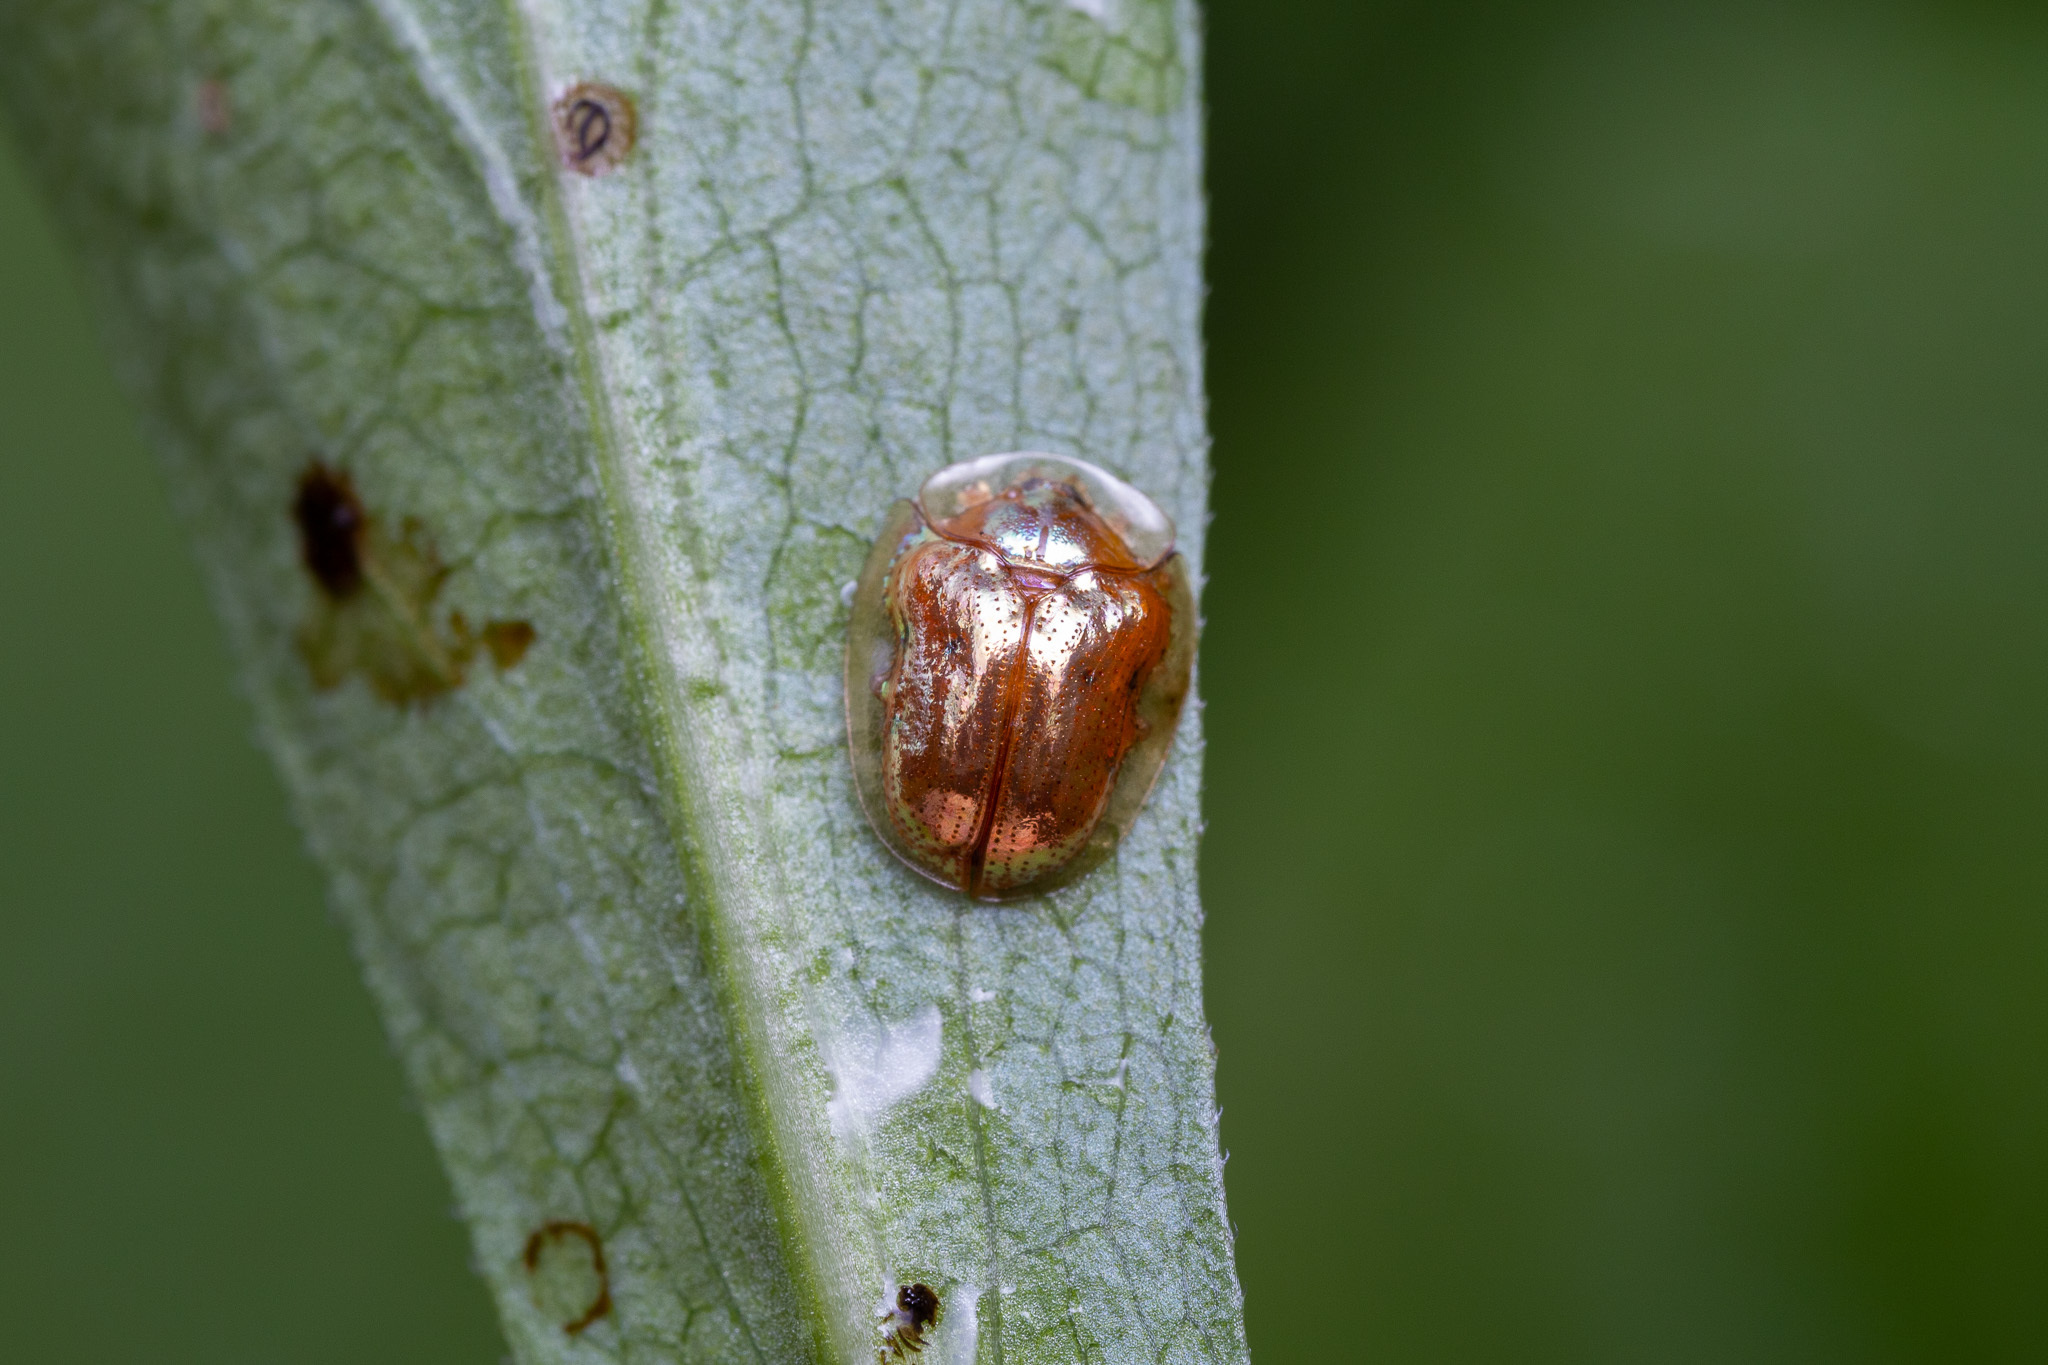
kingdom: Animalia
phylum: Arthropoda
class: Insecta
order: Coleoptera
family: Chrysomelidae
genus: Charidotella
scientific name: Charidotella sexpunctata
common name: Golden tortoise beetle
